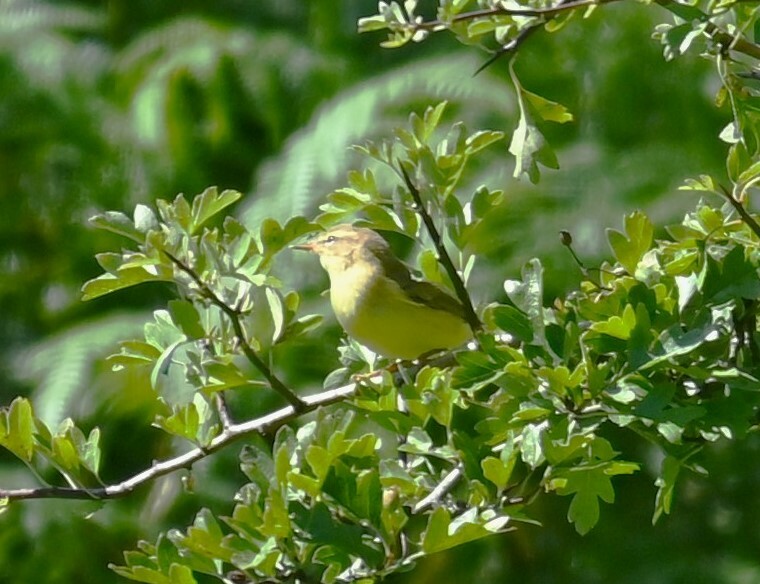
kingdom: Animalia
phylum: Chordata
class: Aves
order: Passeriformes
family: Phylloscopidae
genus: Phylloscopus
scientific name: Phylloscopus trochilus
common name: Willow warbler
